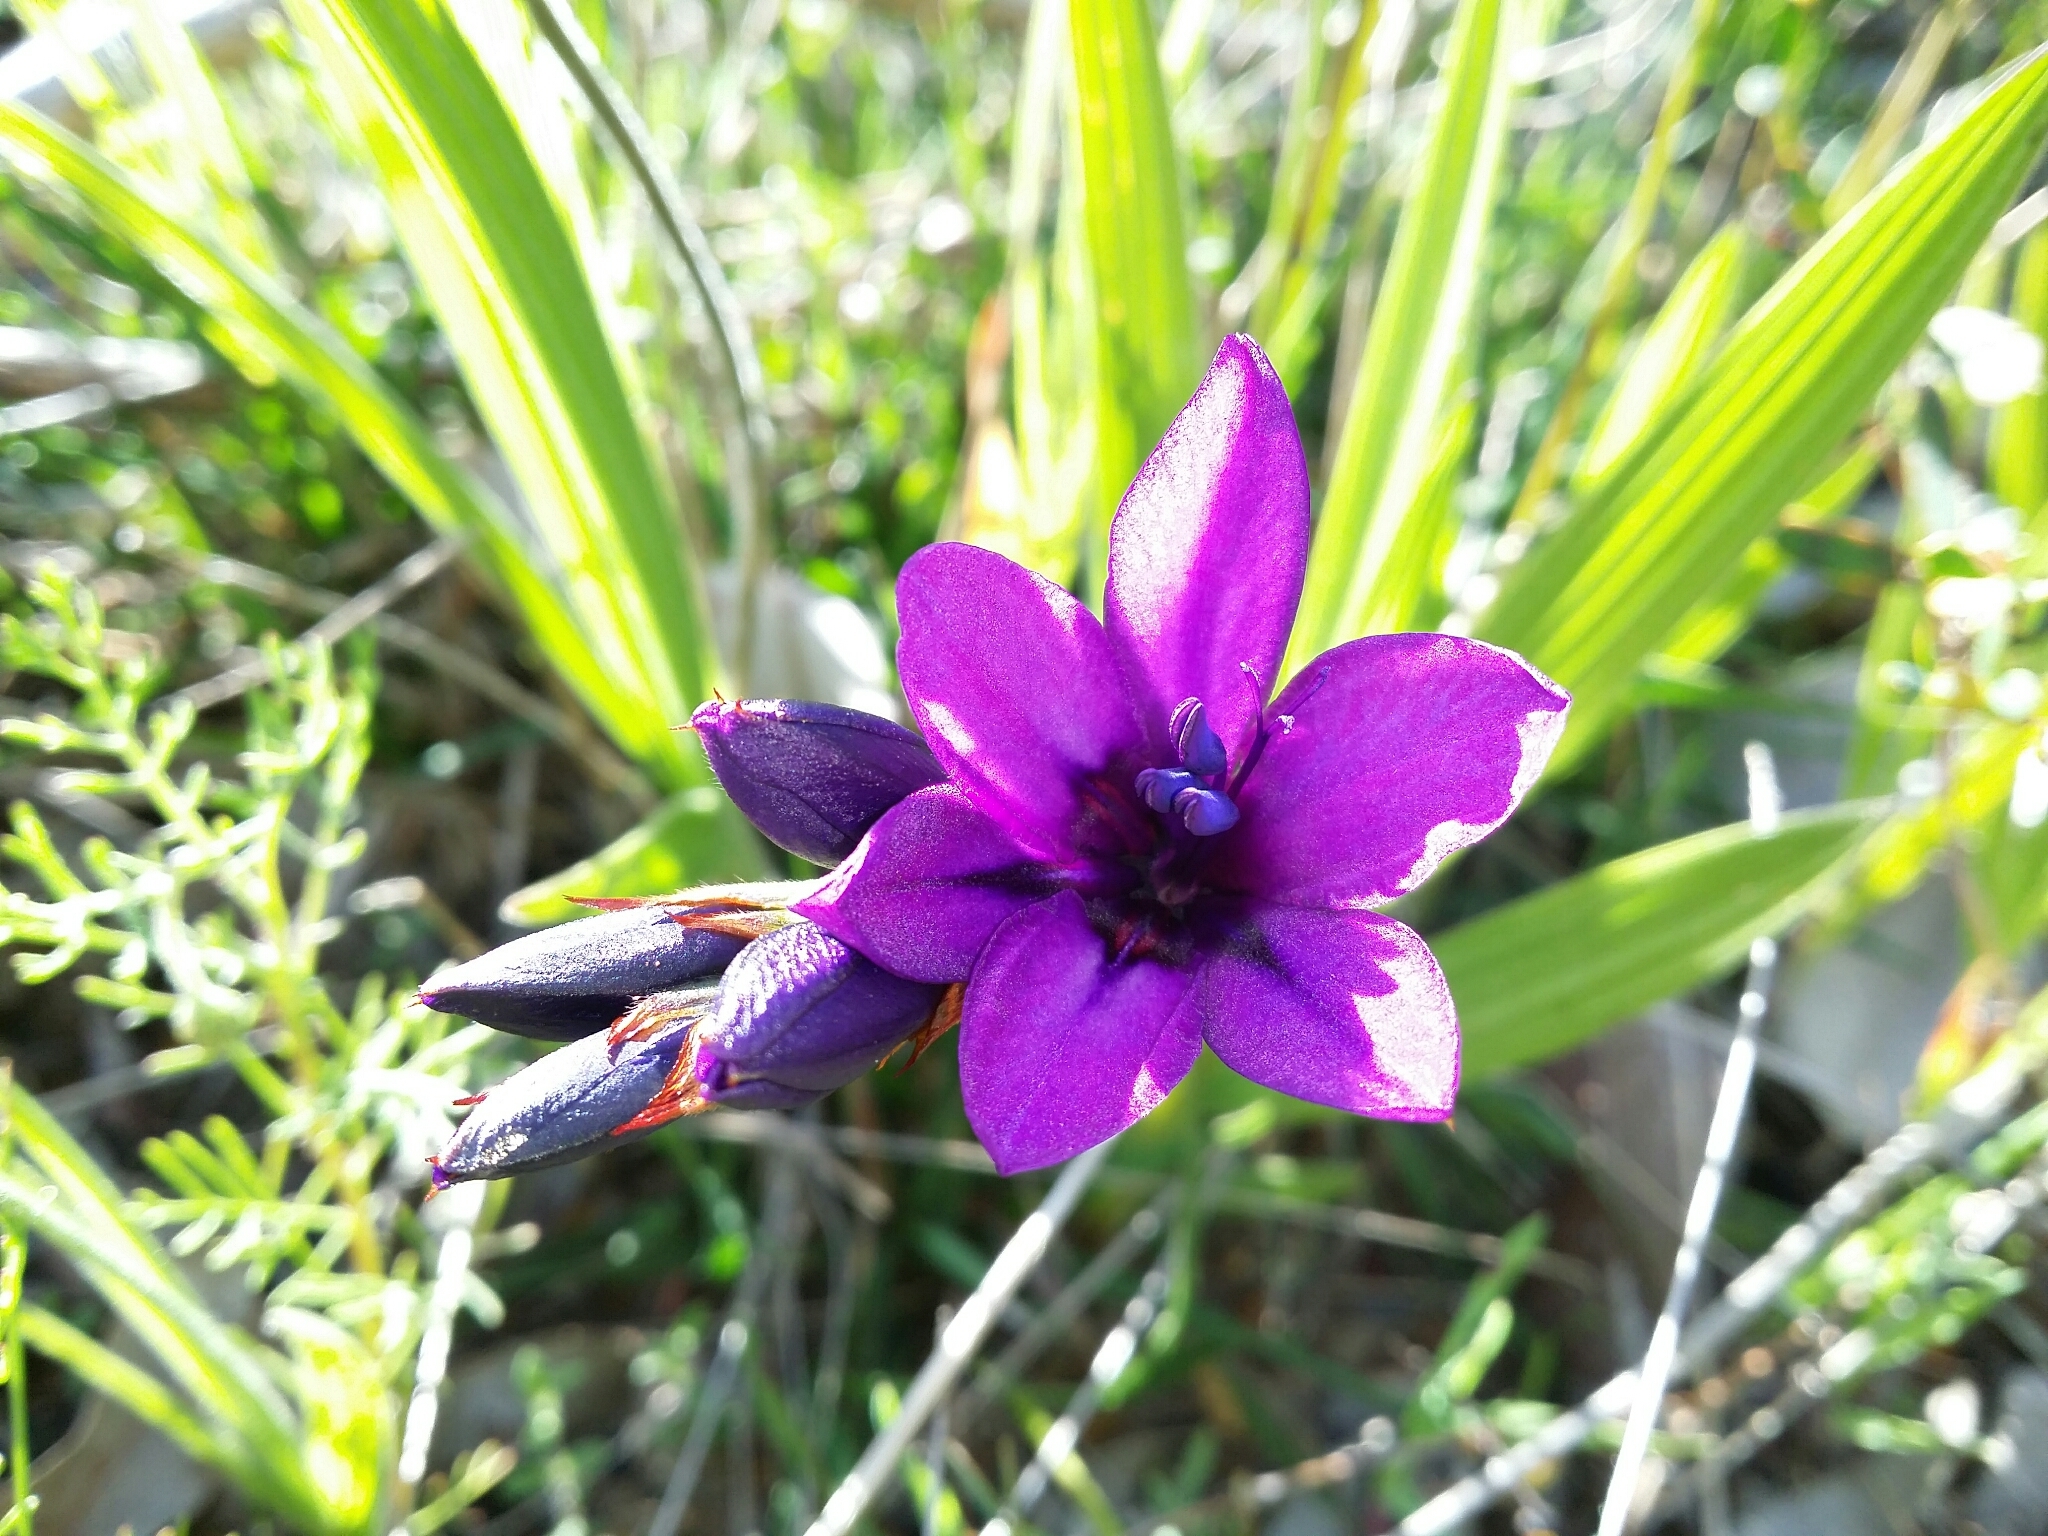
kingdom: Plantae
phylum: Tracheophyta
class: Liliopsida
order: Asparagales
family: Iridaceae
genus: Babiana
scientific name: Babiana angustifolia
